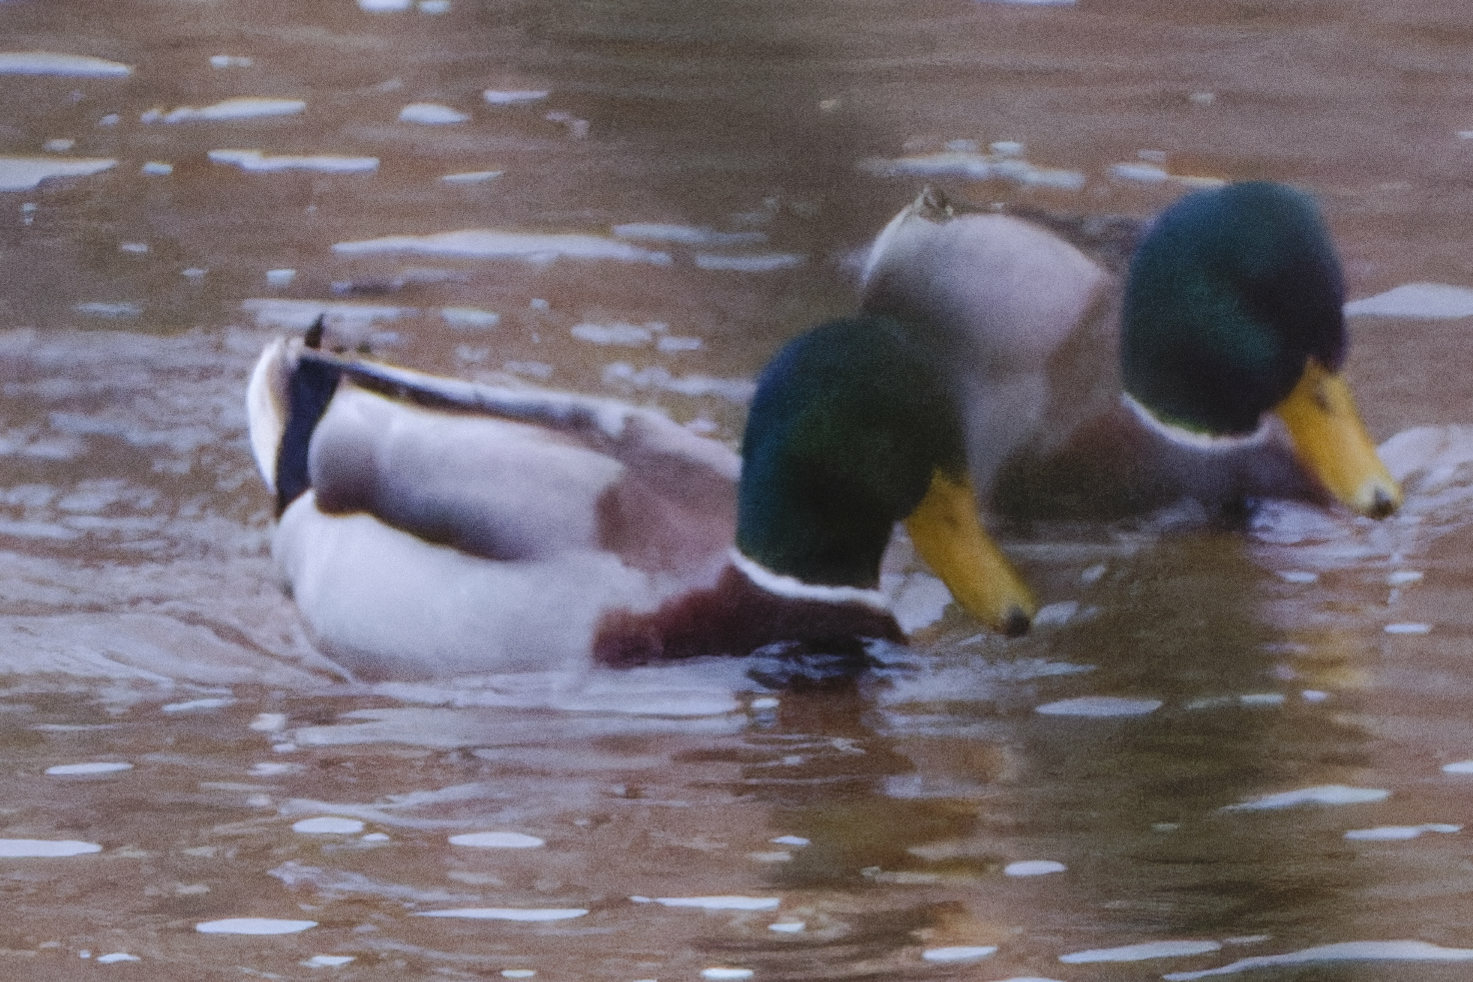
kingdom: Animalia
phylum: Chordata
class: Aves
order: Anseriformes
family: Anatidae
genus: Anas
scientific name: Anas platyrhynchos
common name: Mallard
